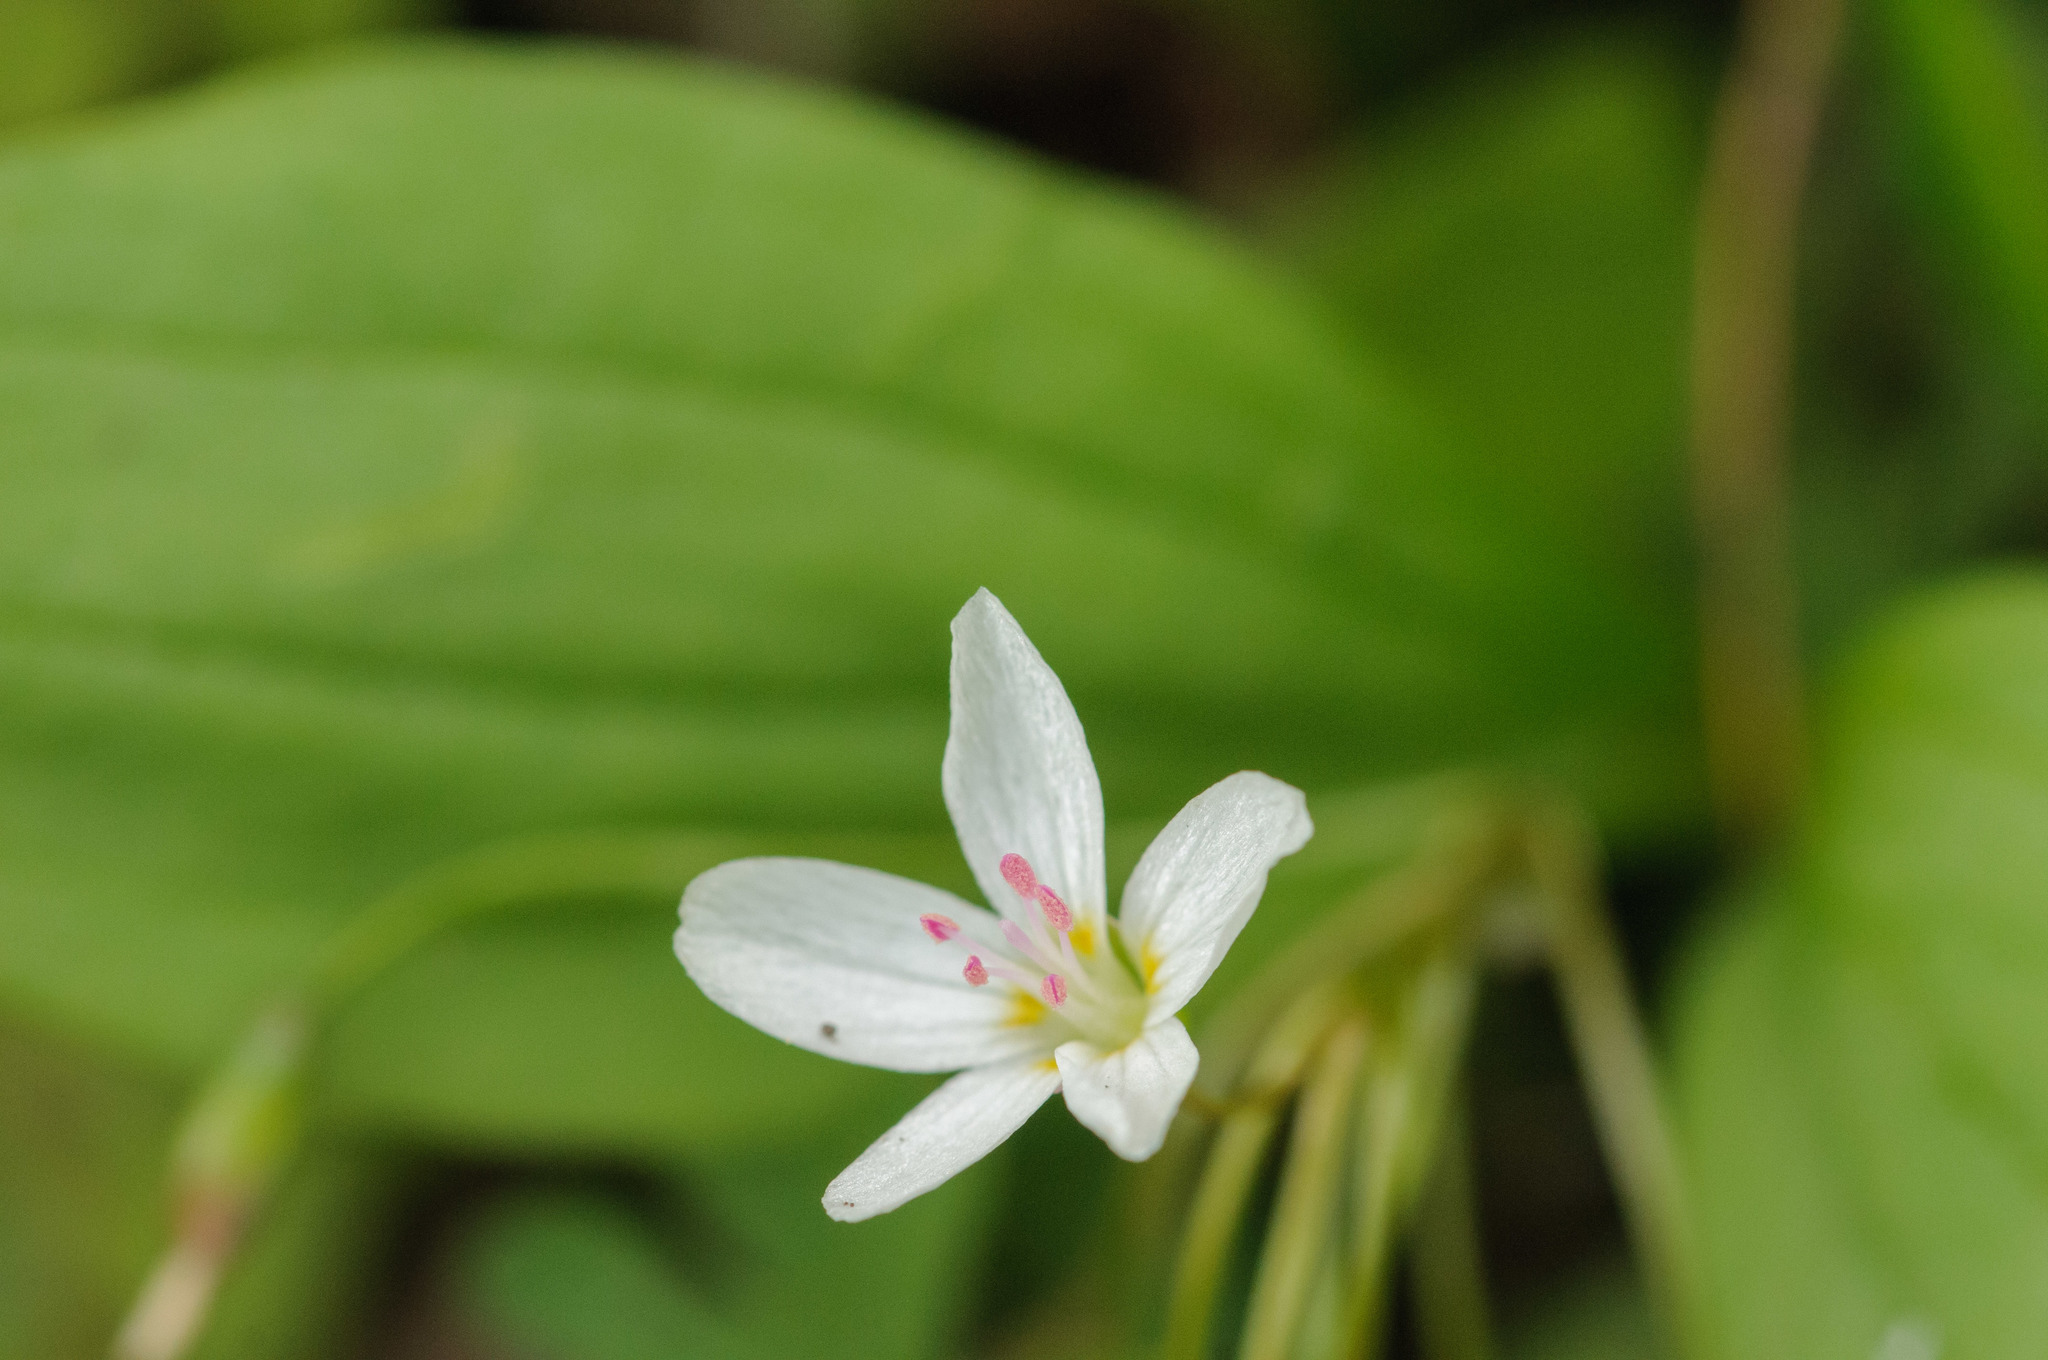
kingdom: Plantae
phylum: Tracheophyta
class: Magnoliopsida
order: Caryophyllales
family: Montiaceae
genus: Claytonia
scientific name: Claytonia lanceolata
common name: Western spring-beauty
